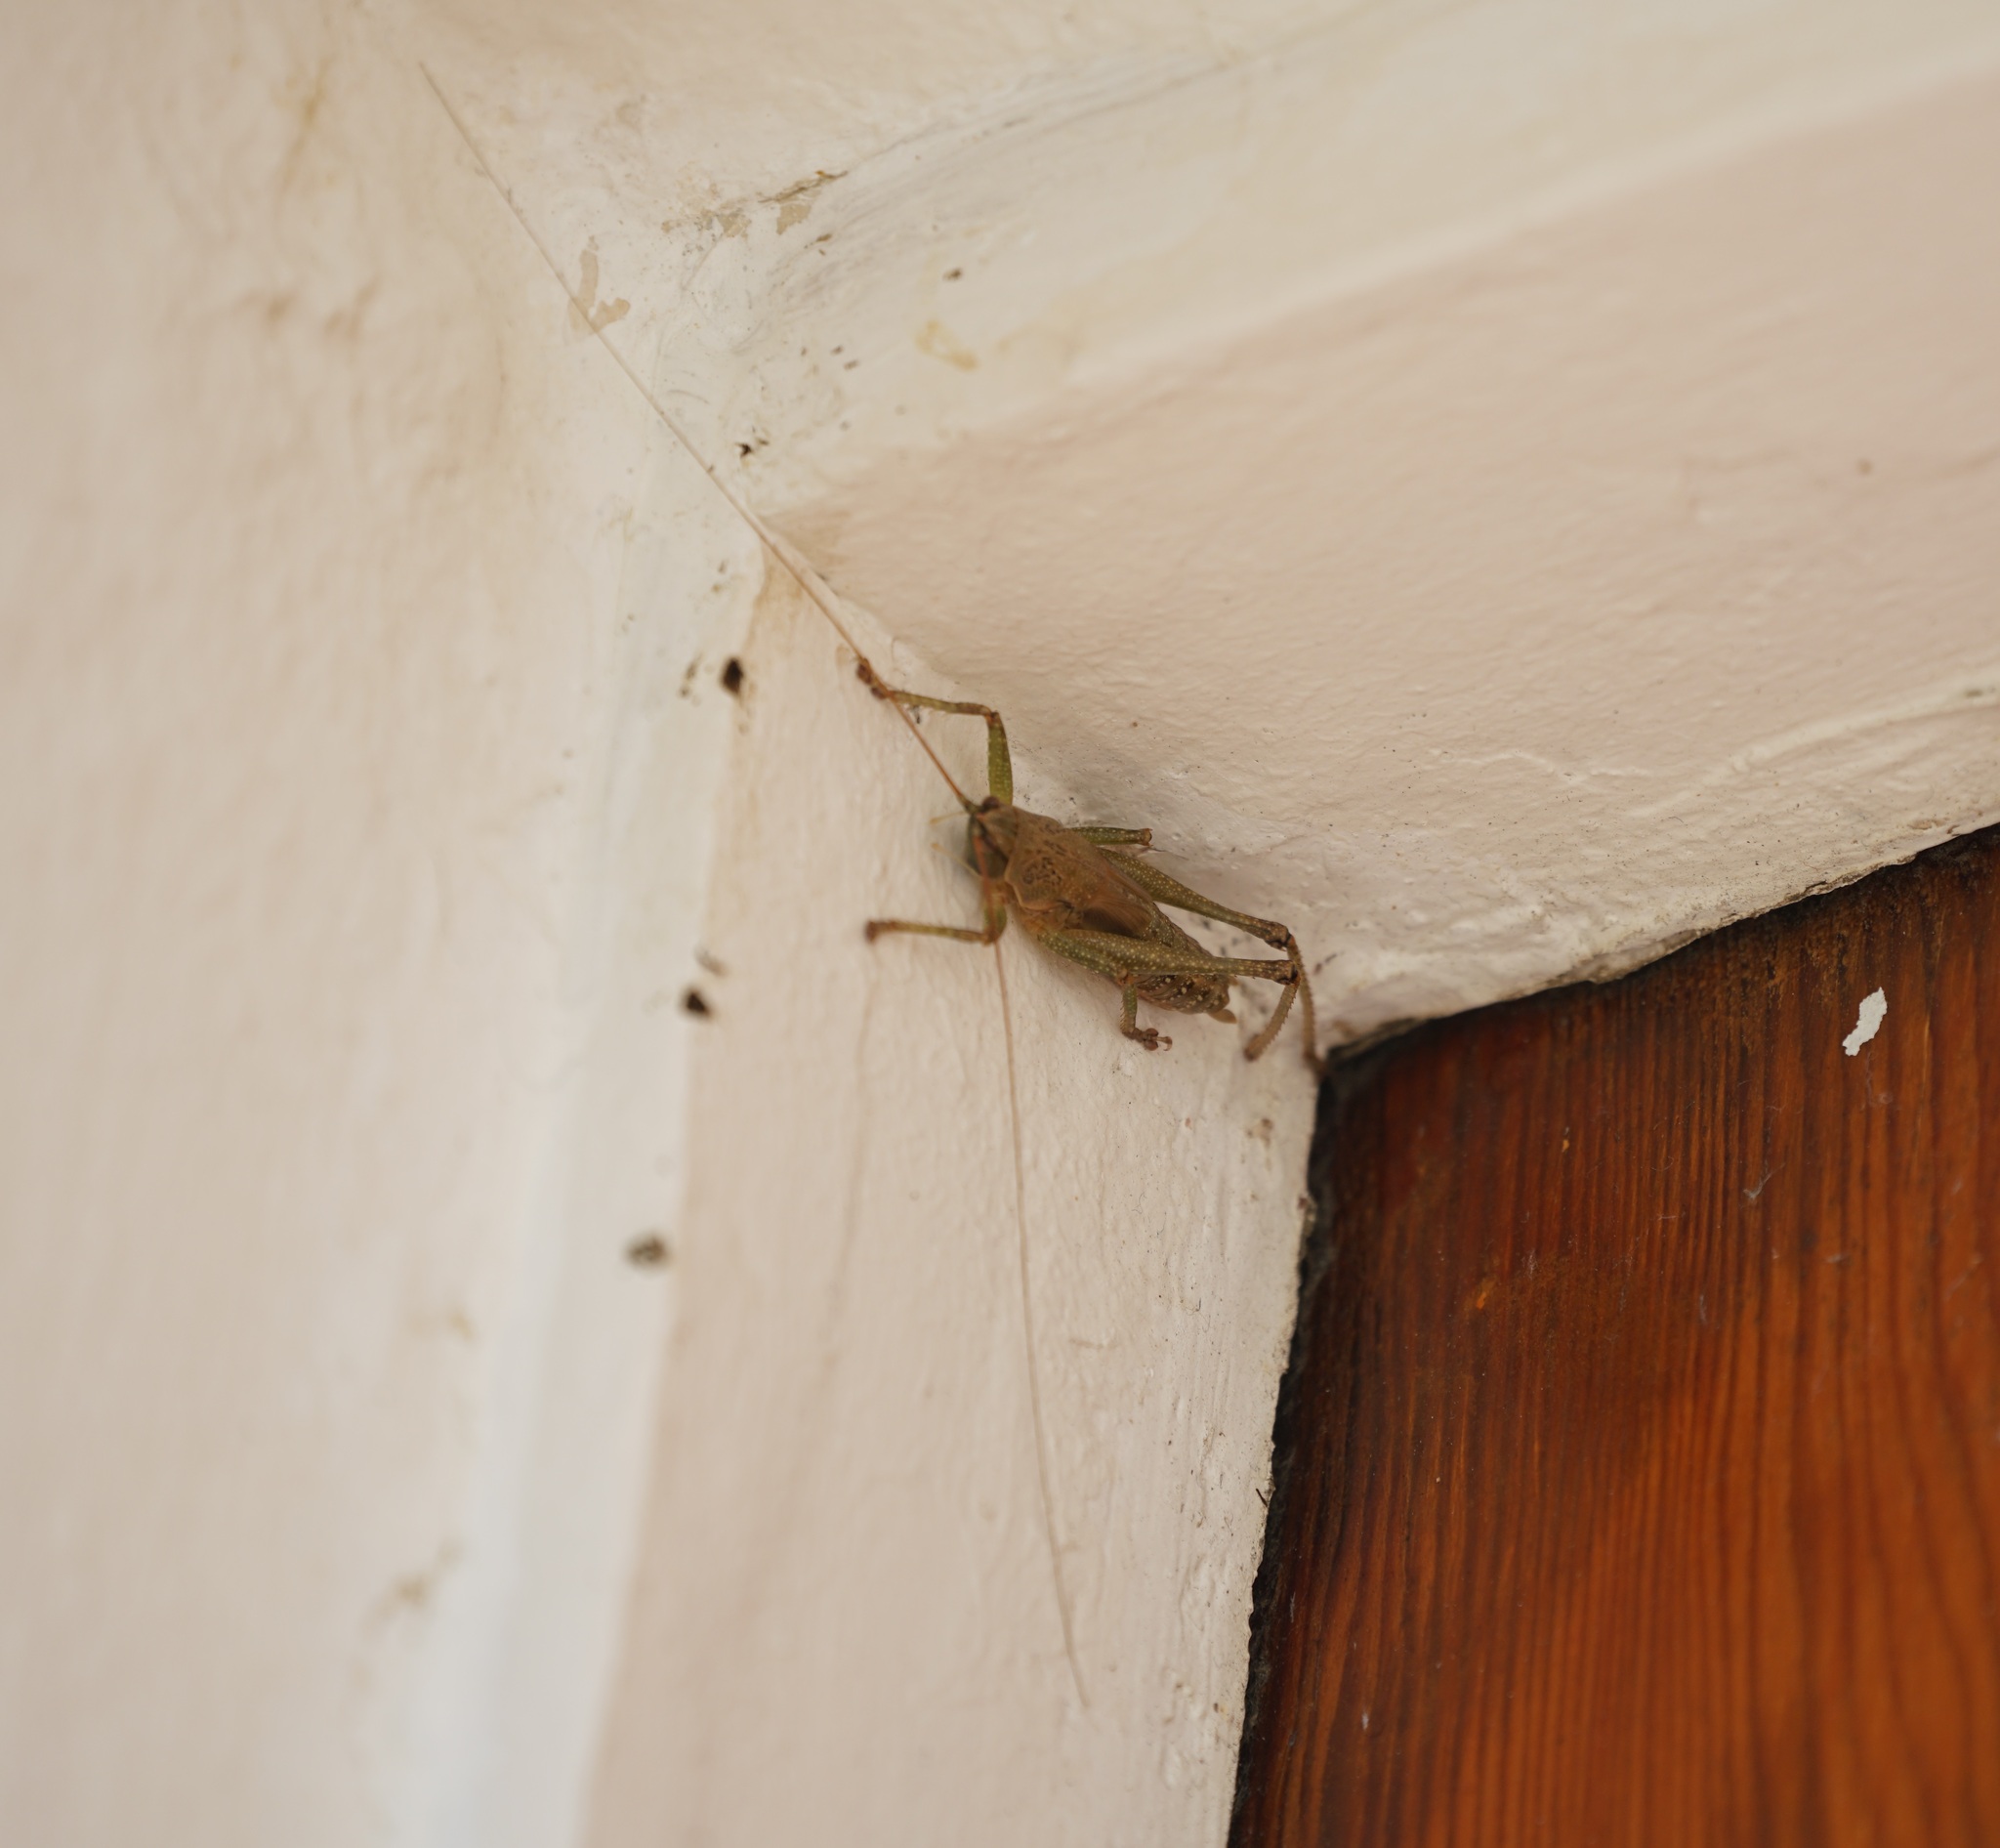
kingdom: Animalia
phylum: Arthropoda
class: Insecta
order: Orthoptera
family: Tettigoniidae
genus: Austrosalomona
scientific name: Austrosalomona falcata
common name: Olive-green coastal katydid
